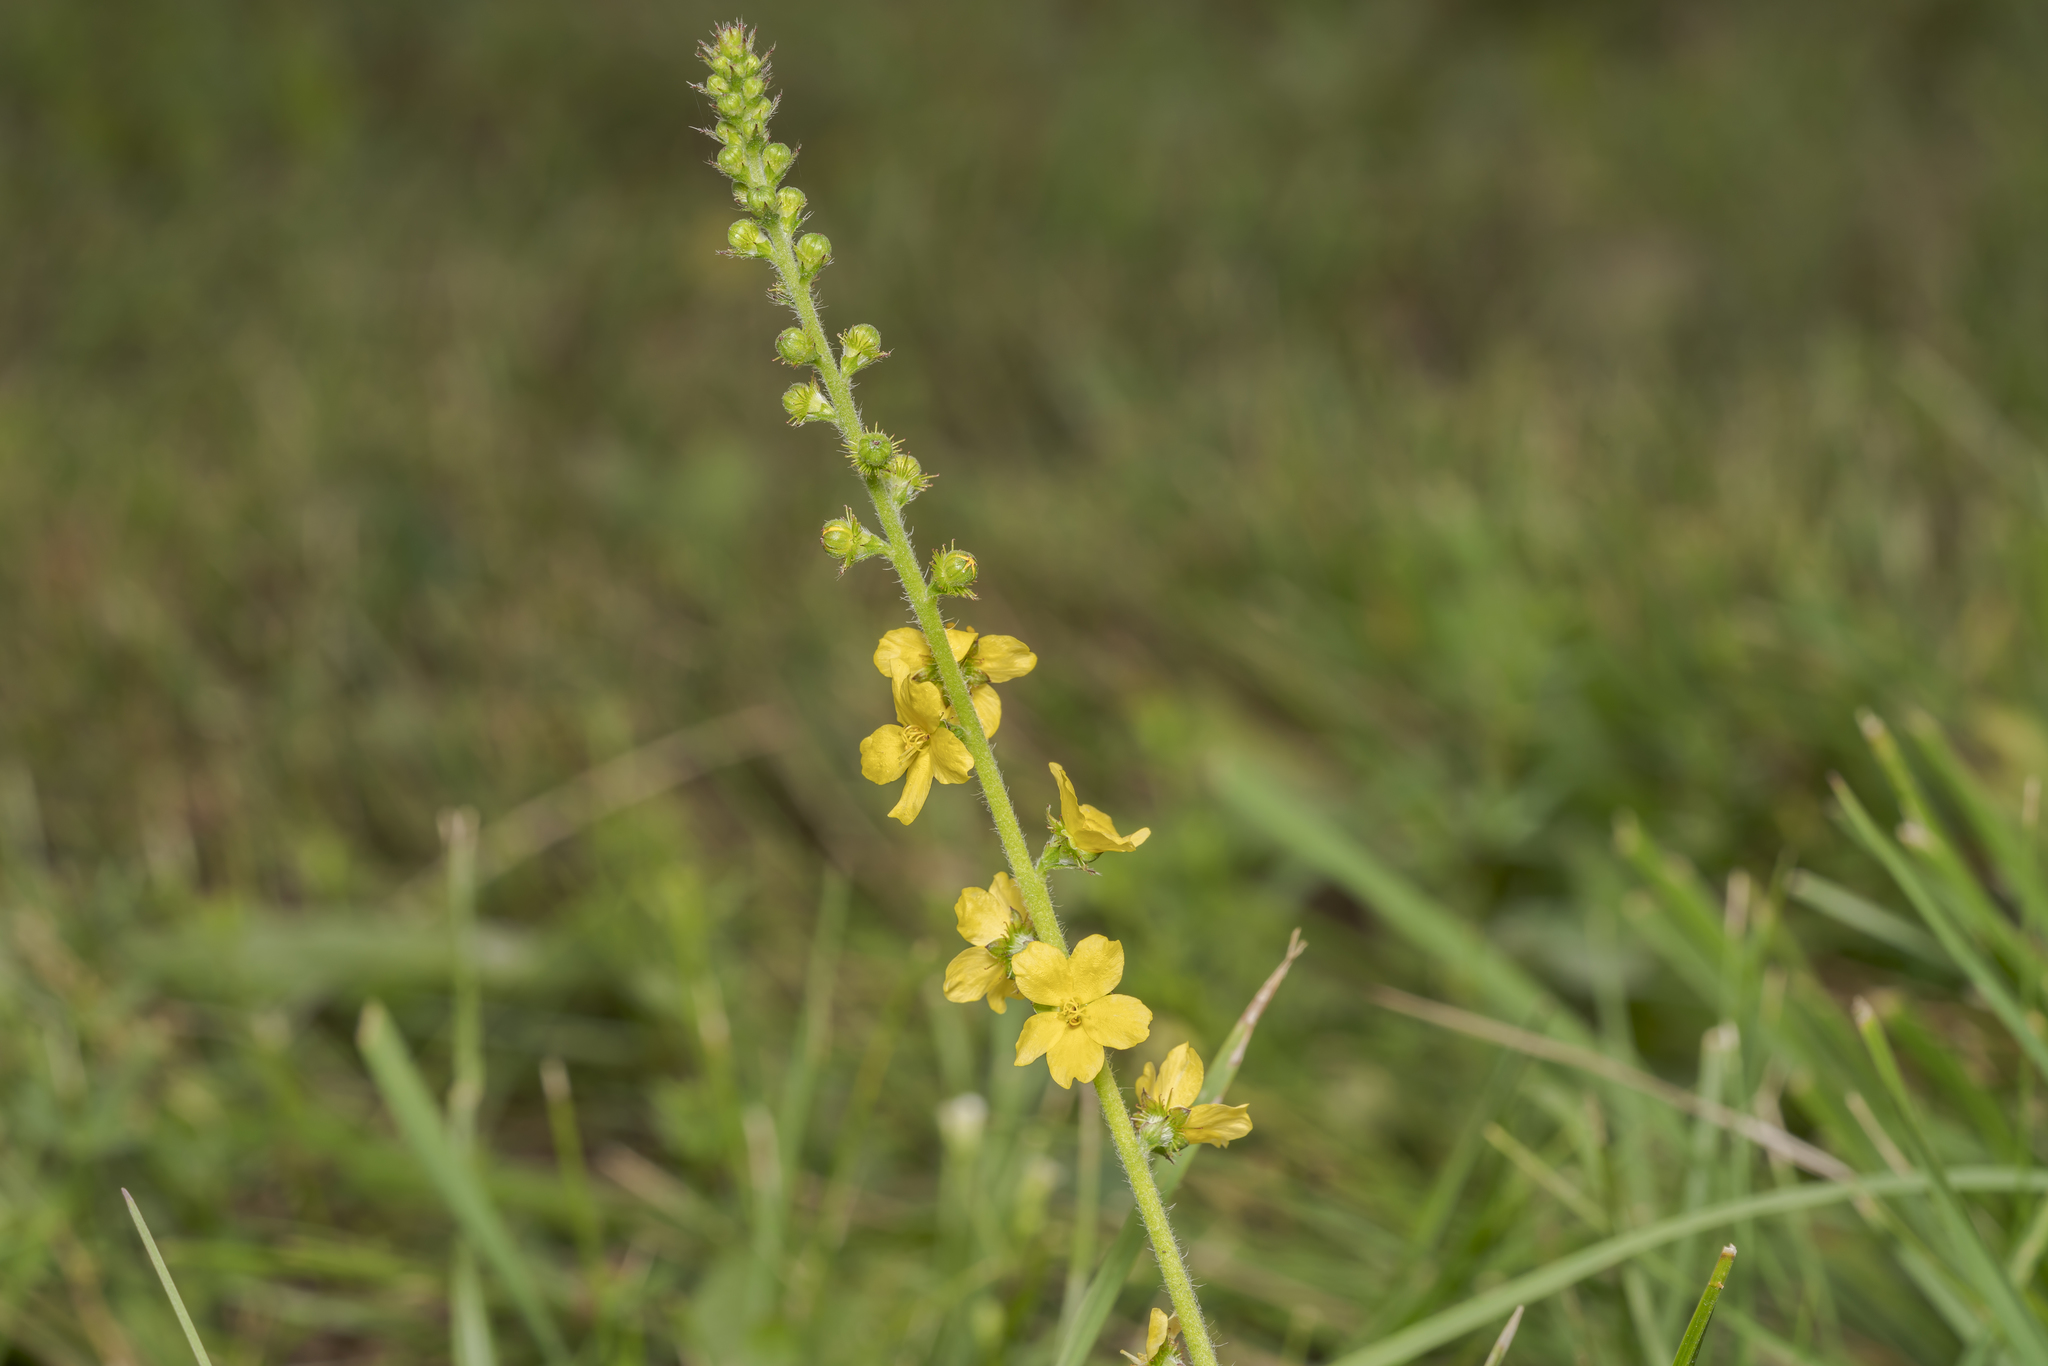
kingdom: Plantae
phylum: Tracheophyta
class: Magnoliopsida
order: Rosales
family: Rosaceae
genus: Agrimonia
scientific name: Agrimonia eupatoria
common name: Agrimony
